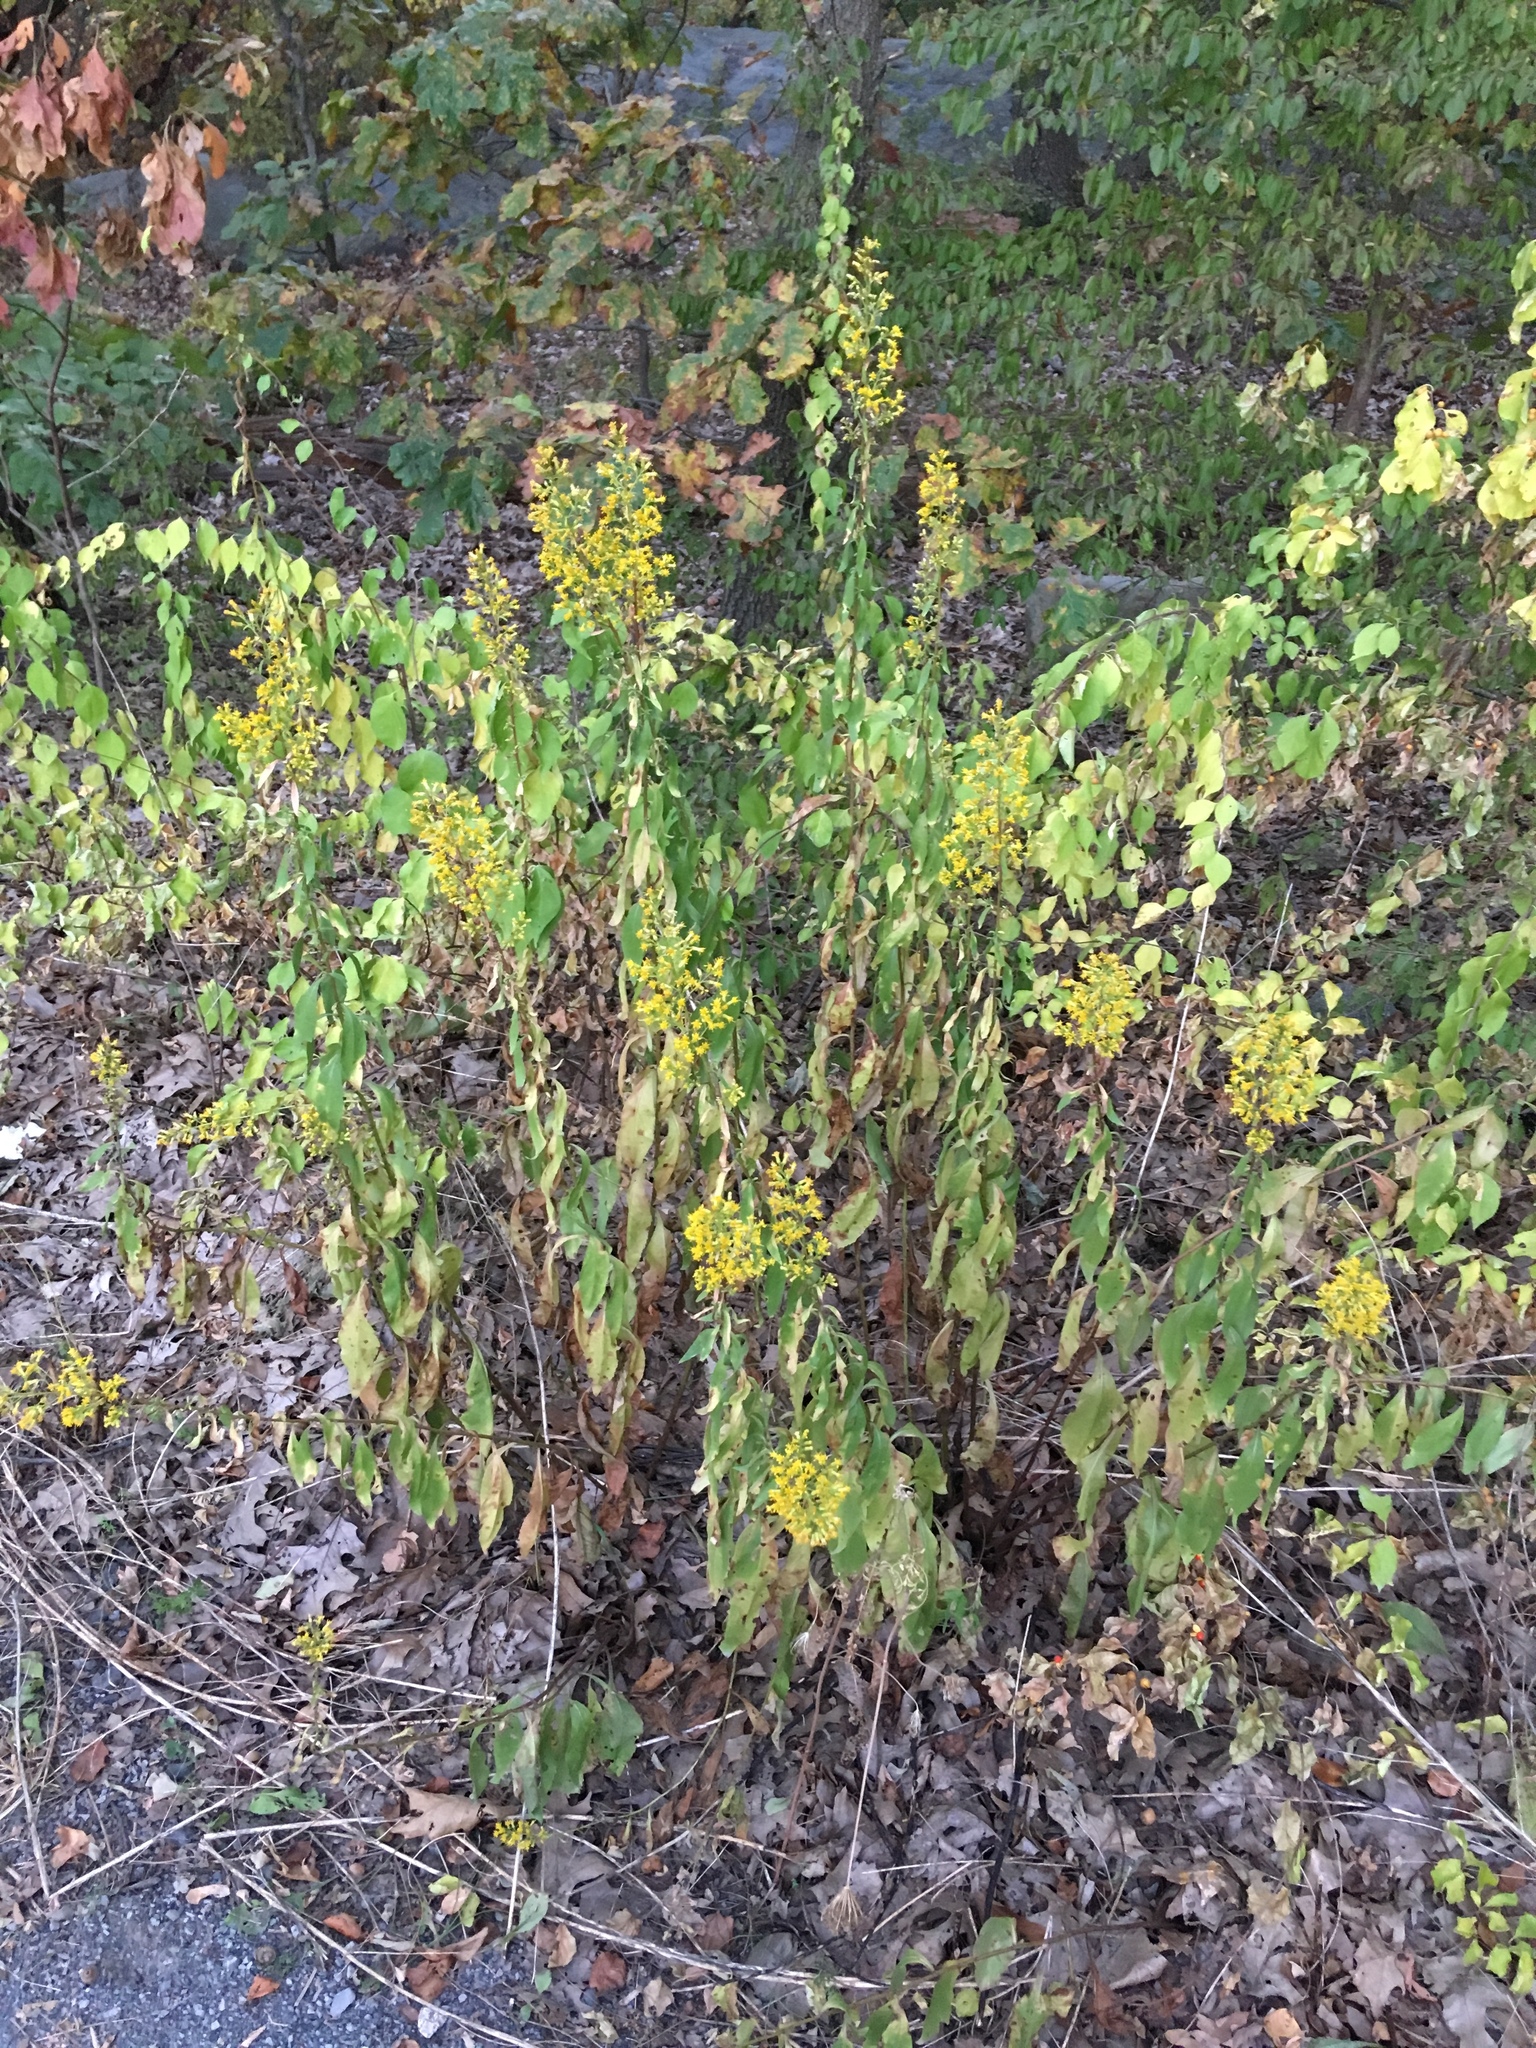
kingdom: Plantae
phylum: Tracheophyta
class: Magnoliopsida
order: Asterales
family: Asteraceae
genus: Solidago
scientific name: Solidago speciosa
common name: Showy goldenrod
